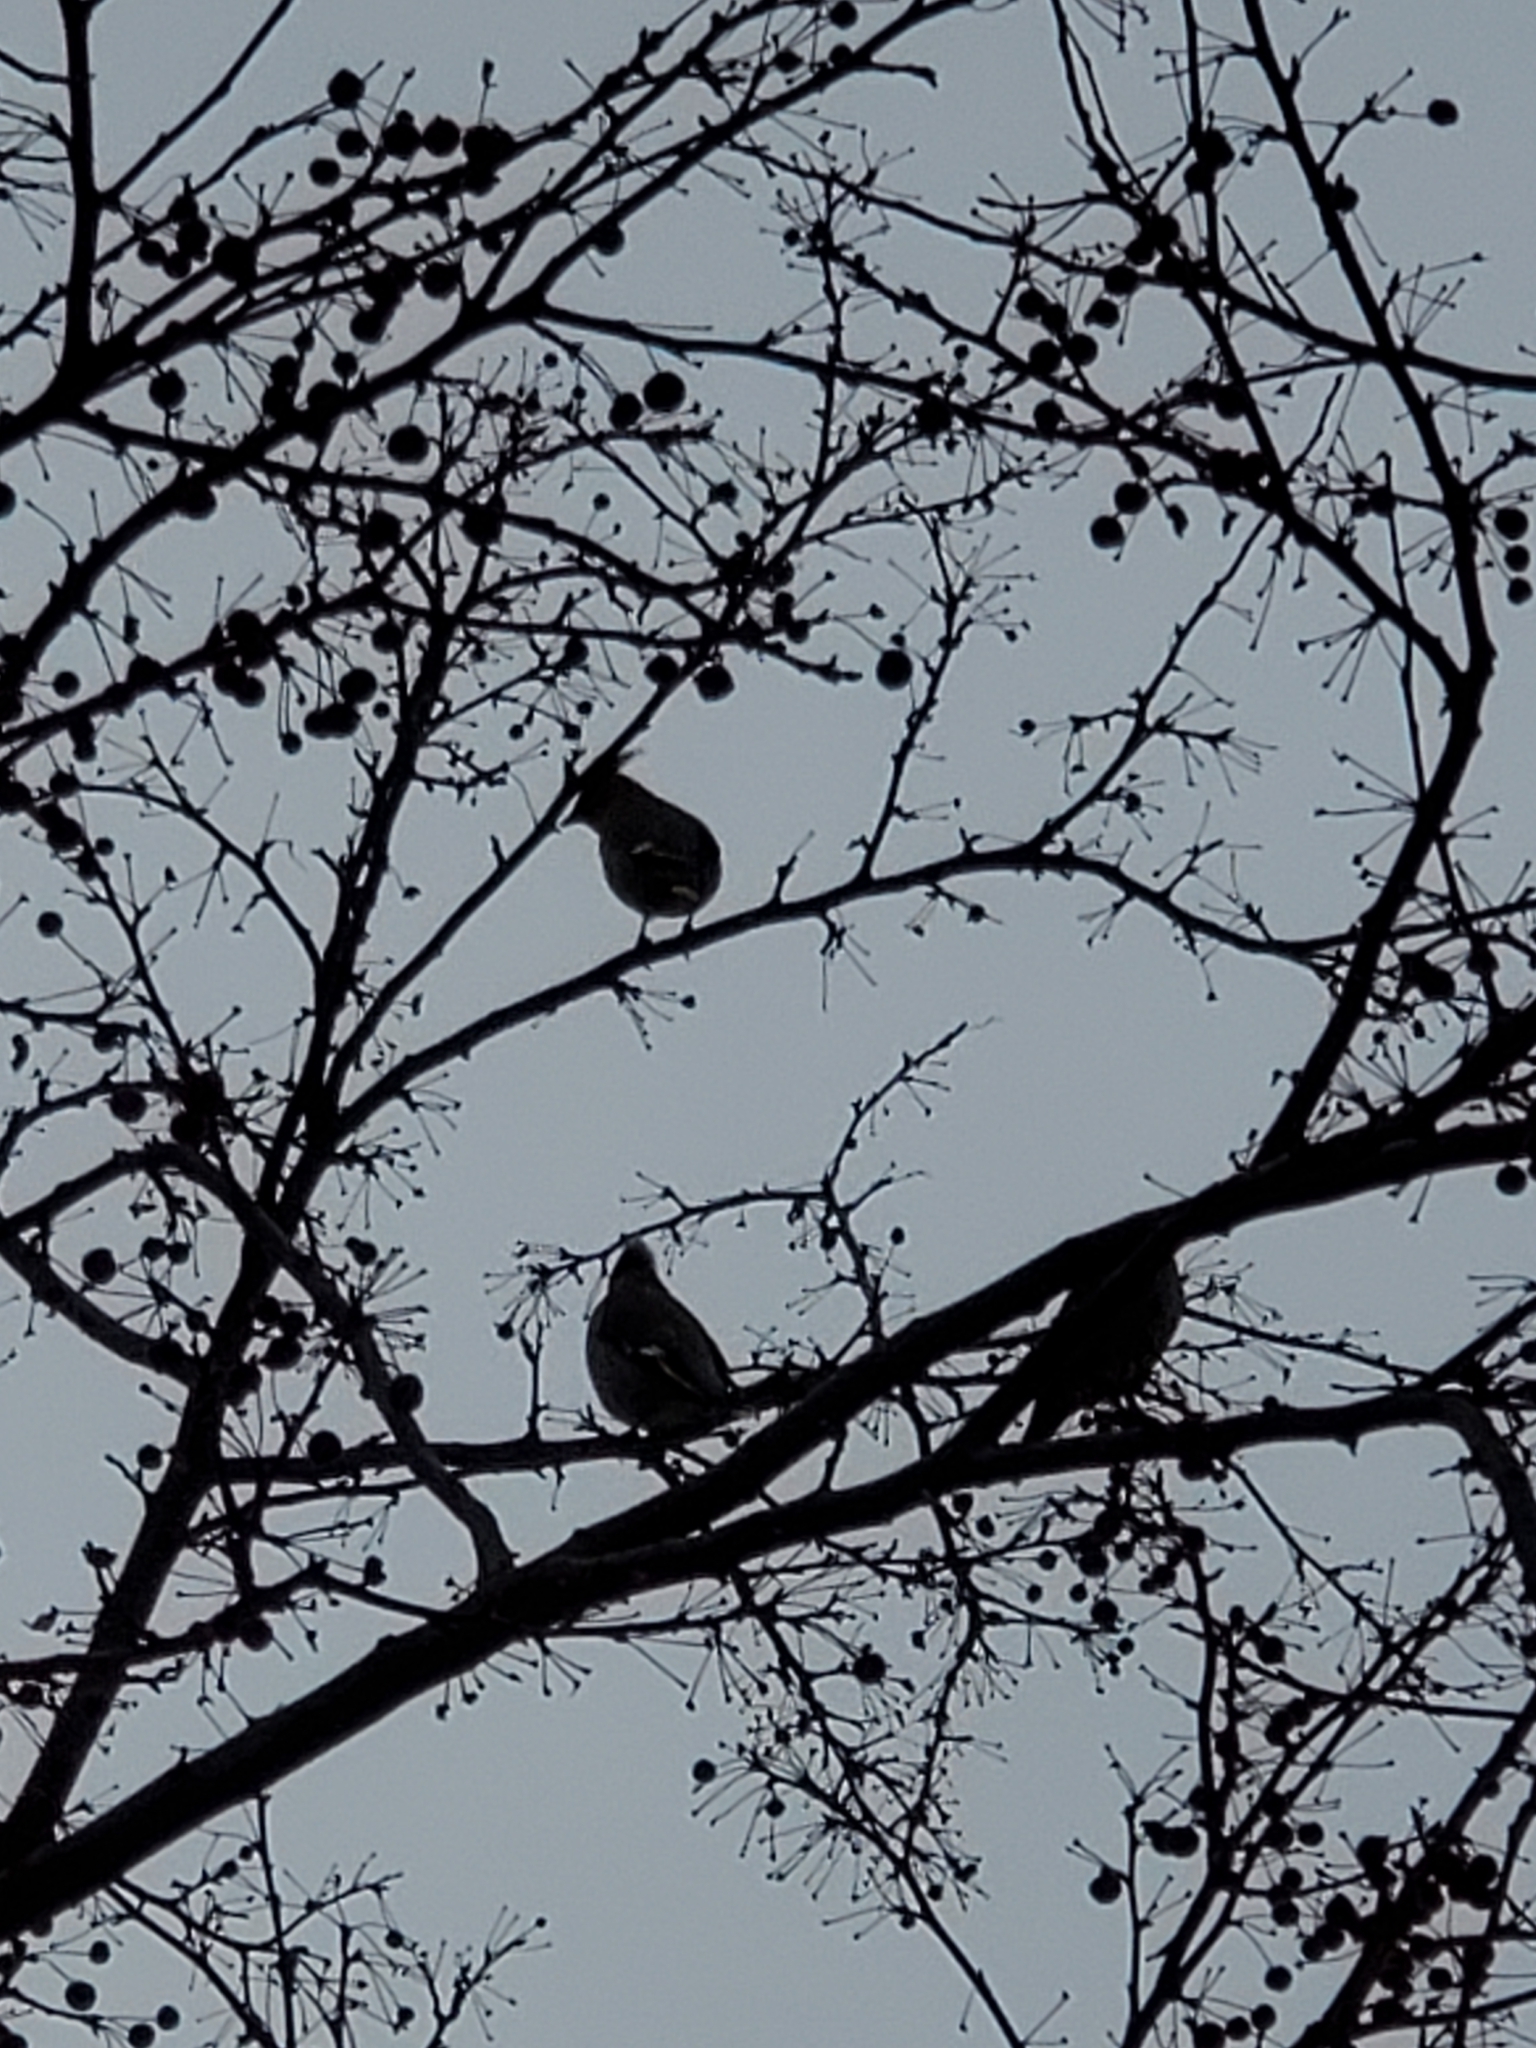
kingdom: Animalia
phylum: Chordata
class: Aves
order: Passeriformes
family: Bombycillidae
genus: Bombycilla
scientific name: Bombycilla garrulus
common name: Bohemian waxwing
